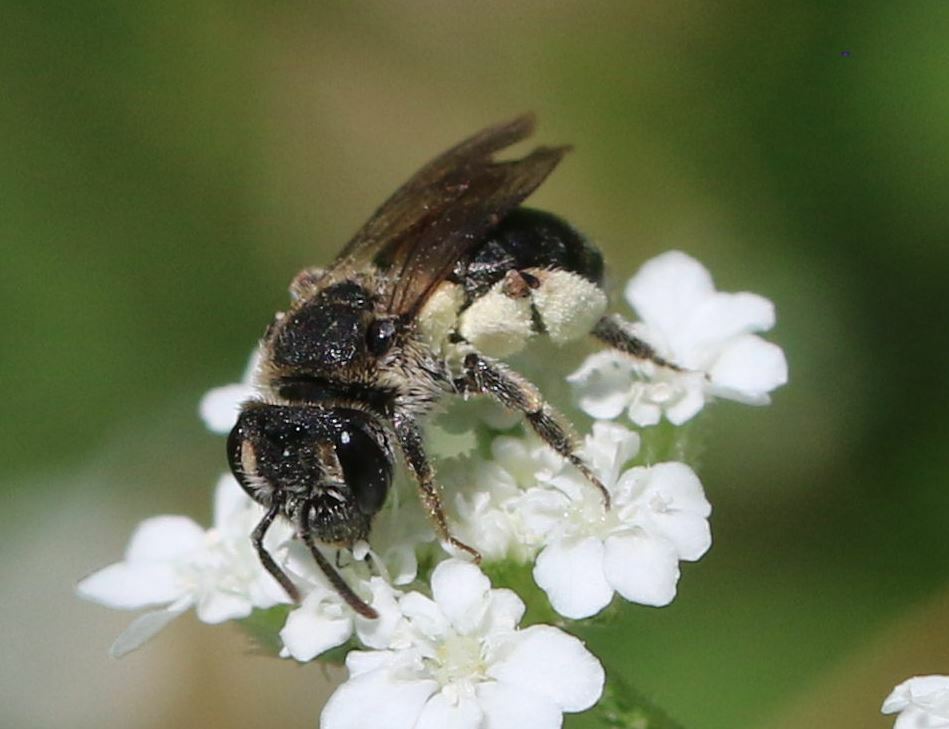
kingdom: Animalia
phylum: Arthropoda
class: Insecta
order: Hymenoptera
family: Andrenidae
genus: Andrena
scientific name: Andrena colletiformis
